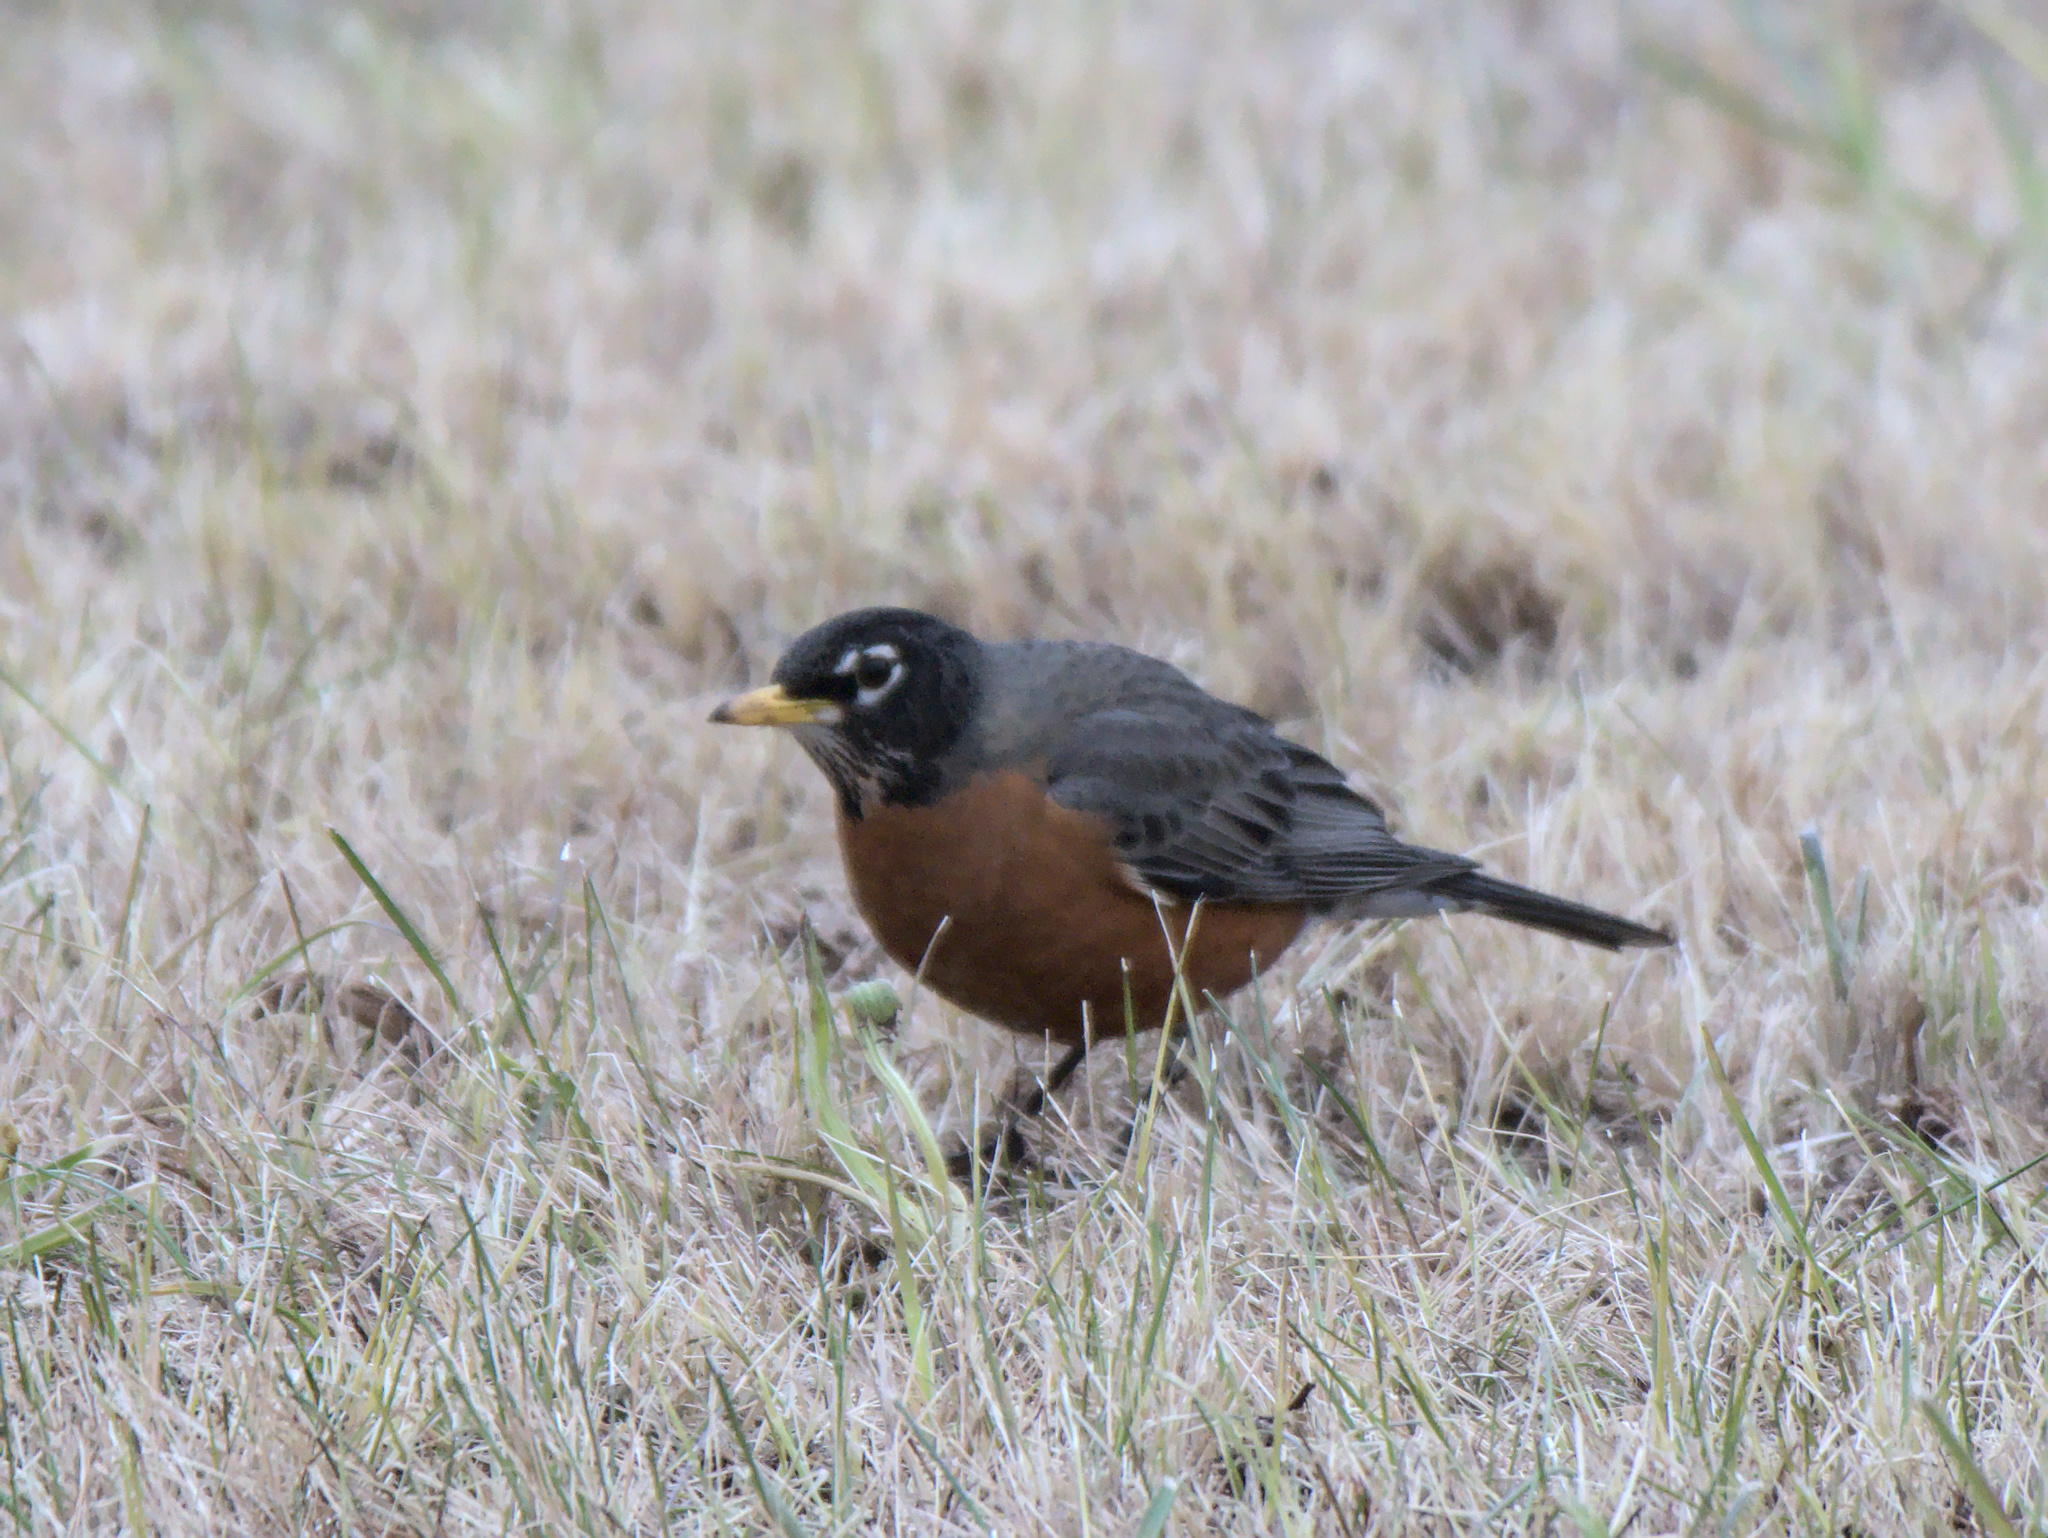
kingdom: Animalia
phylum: Chordata
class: Aves
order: Passeriformes
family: Turdidae
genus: Turdus
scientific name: Turdus migratorius
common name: American robin
